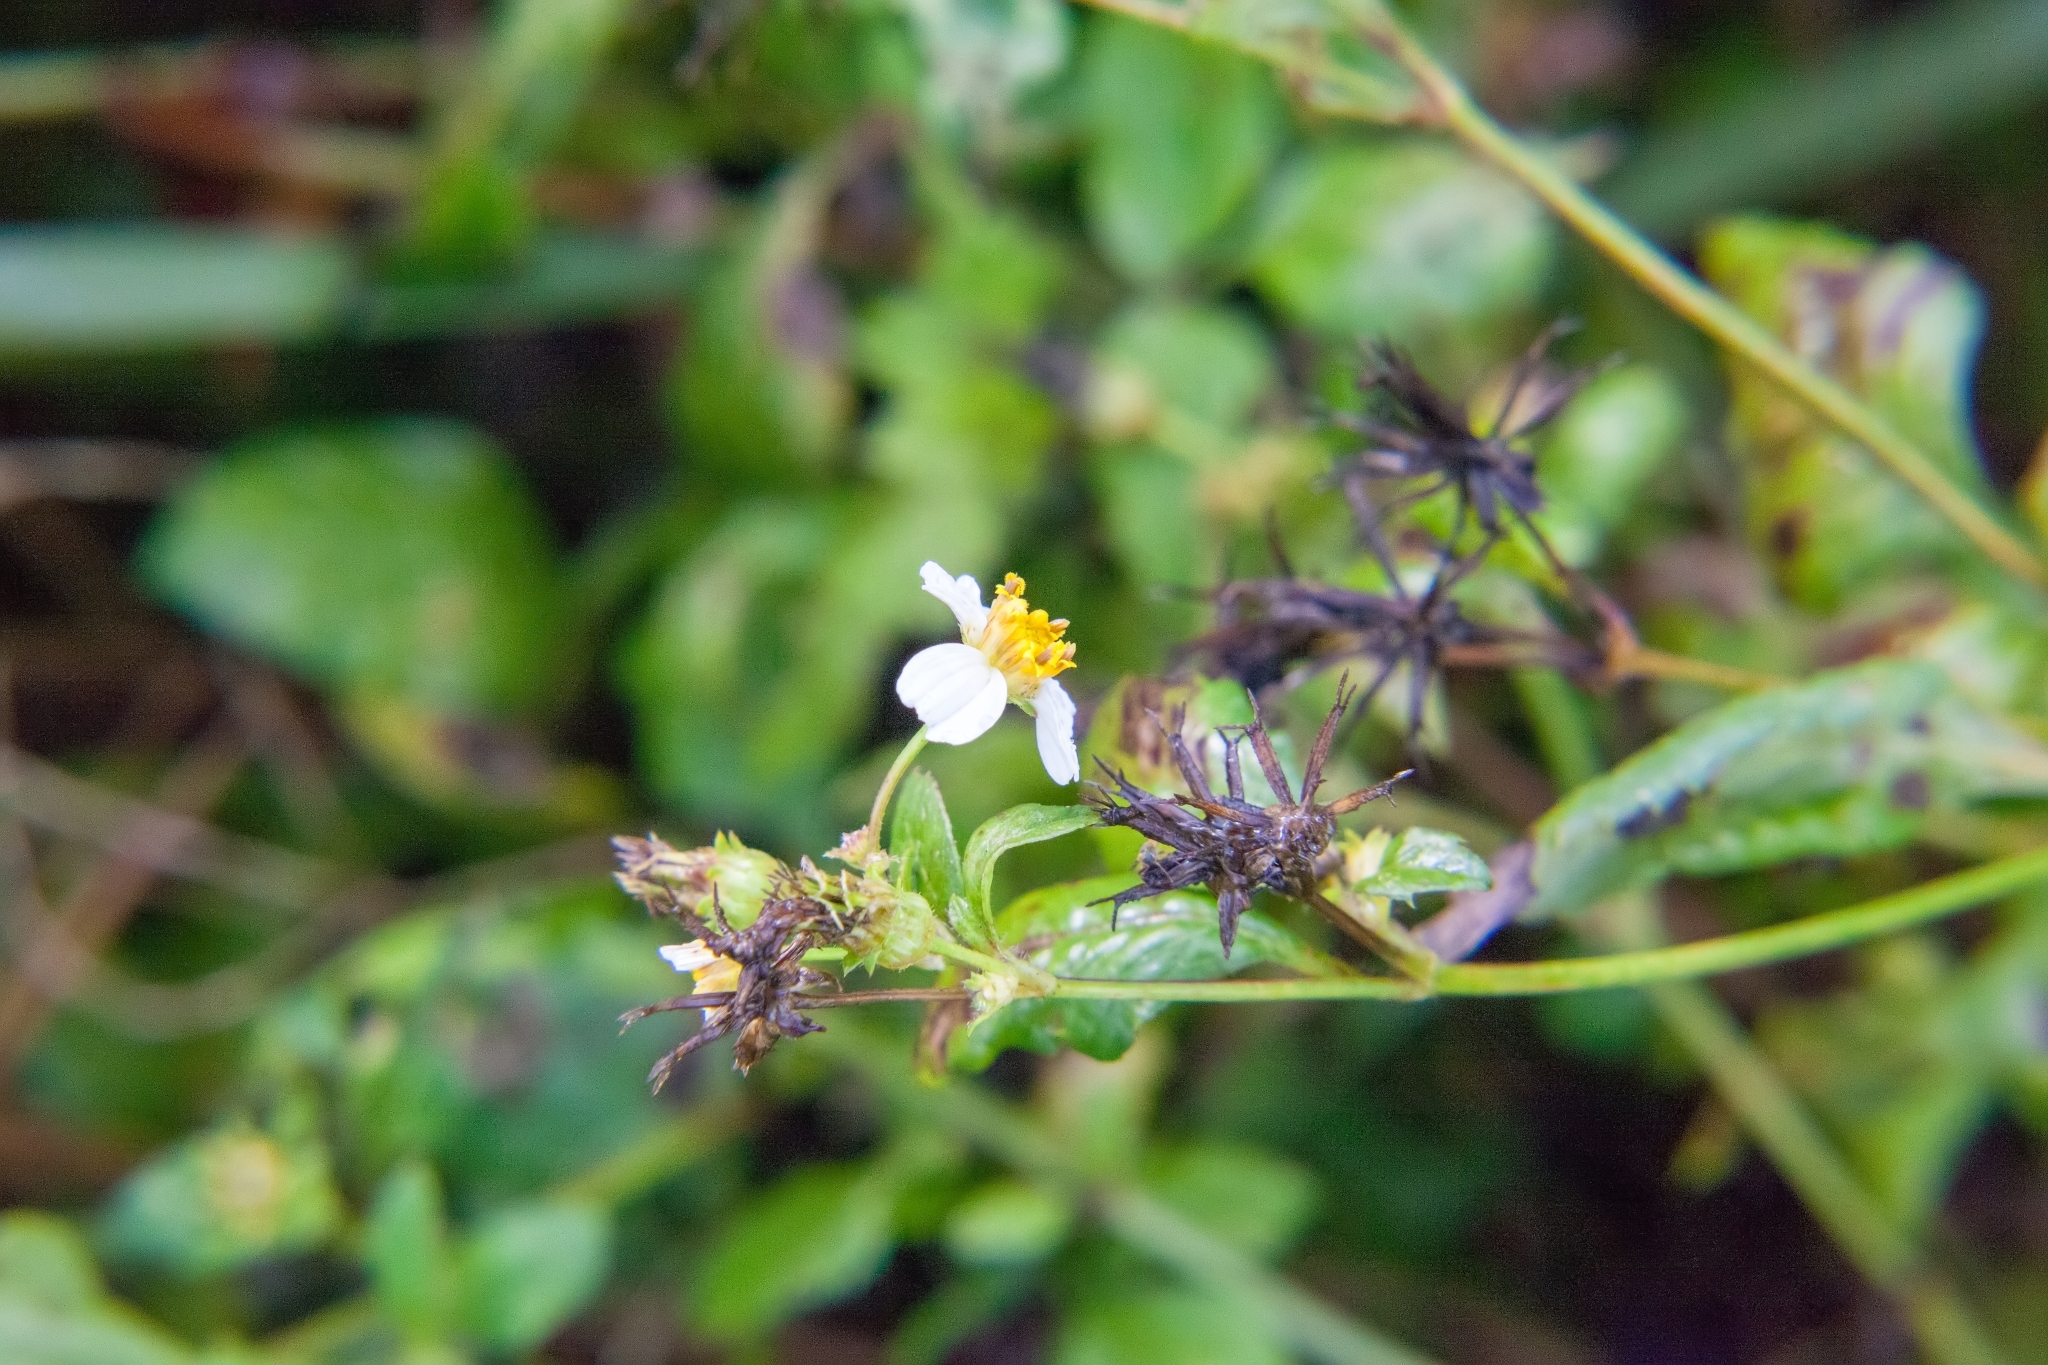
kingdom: Plantae
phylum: Tracheophyta
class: Magnoliopsida
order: Asterales
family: Asteraceae
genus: Bidens
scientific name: Bidens alba
